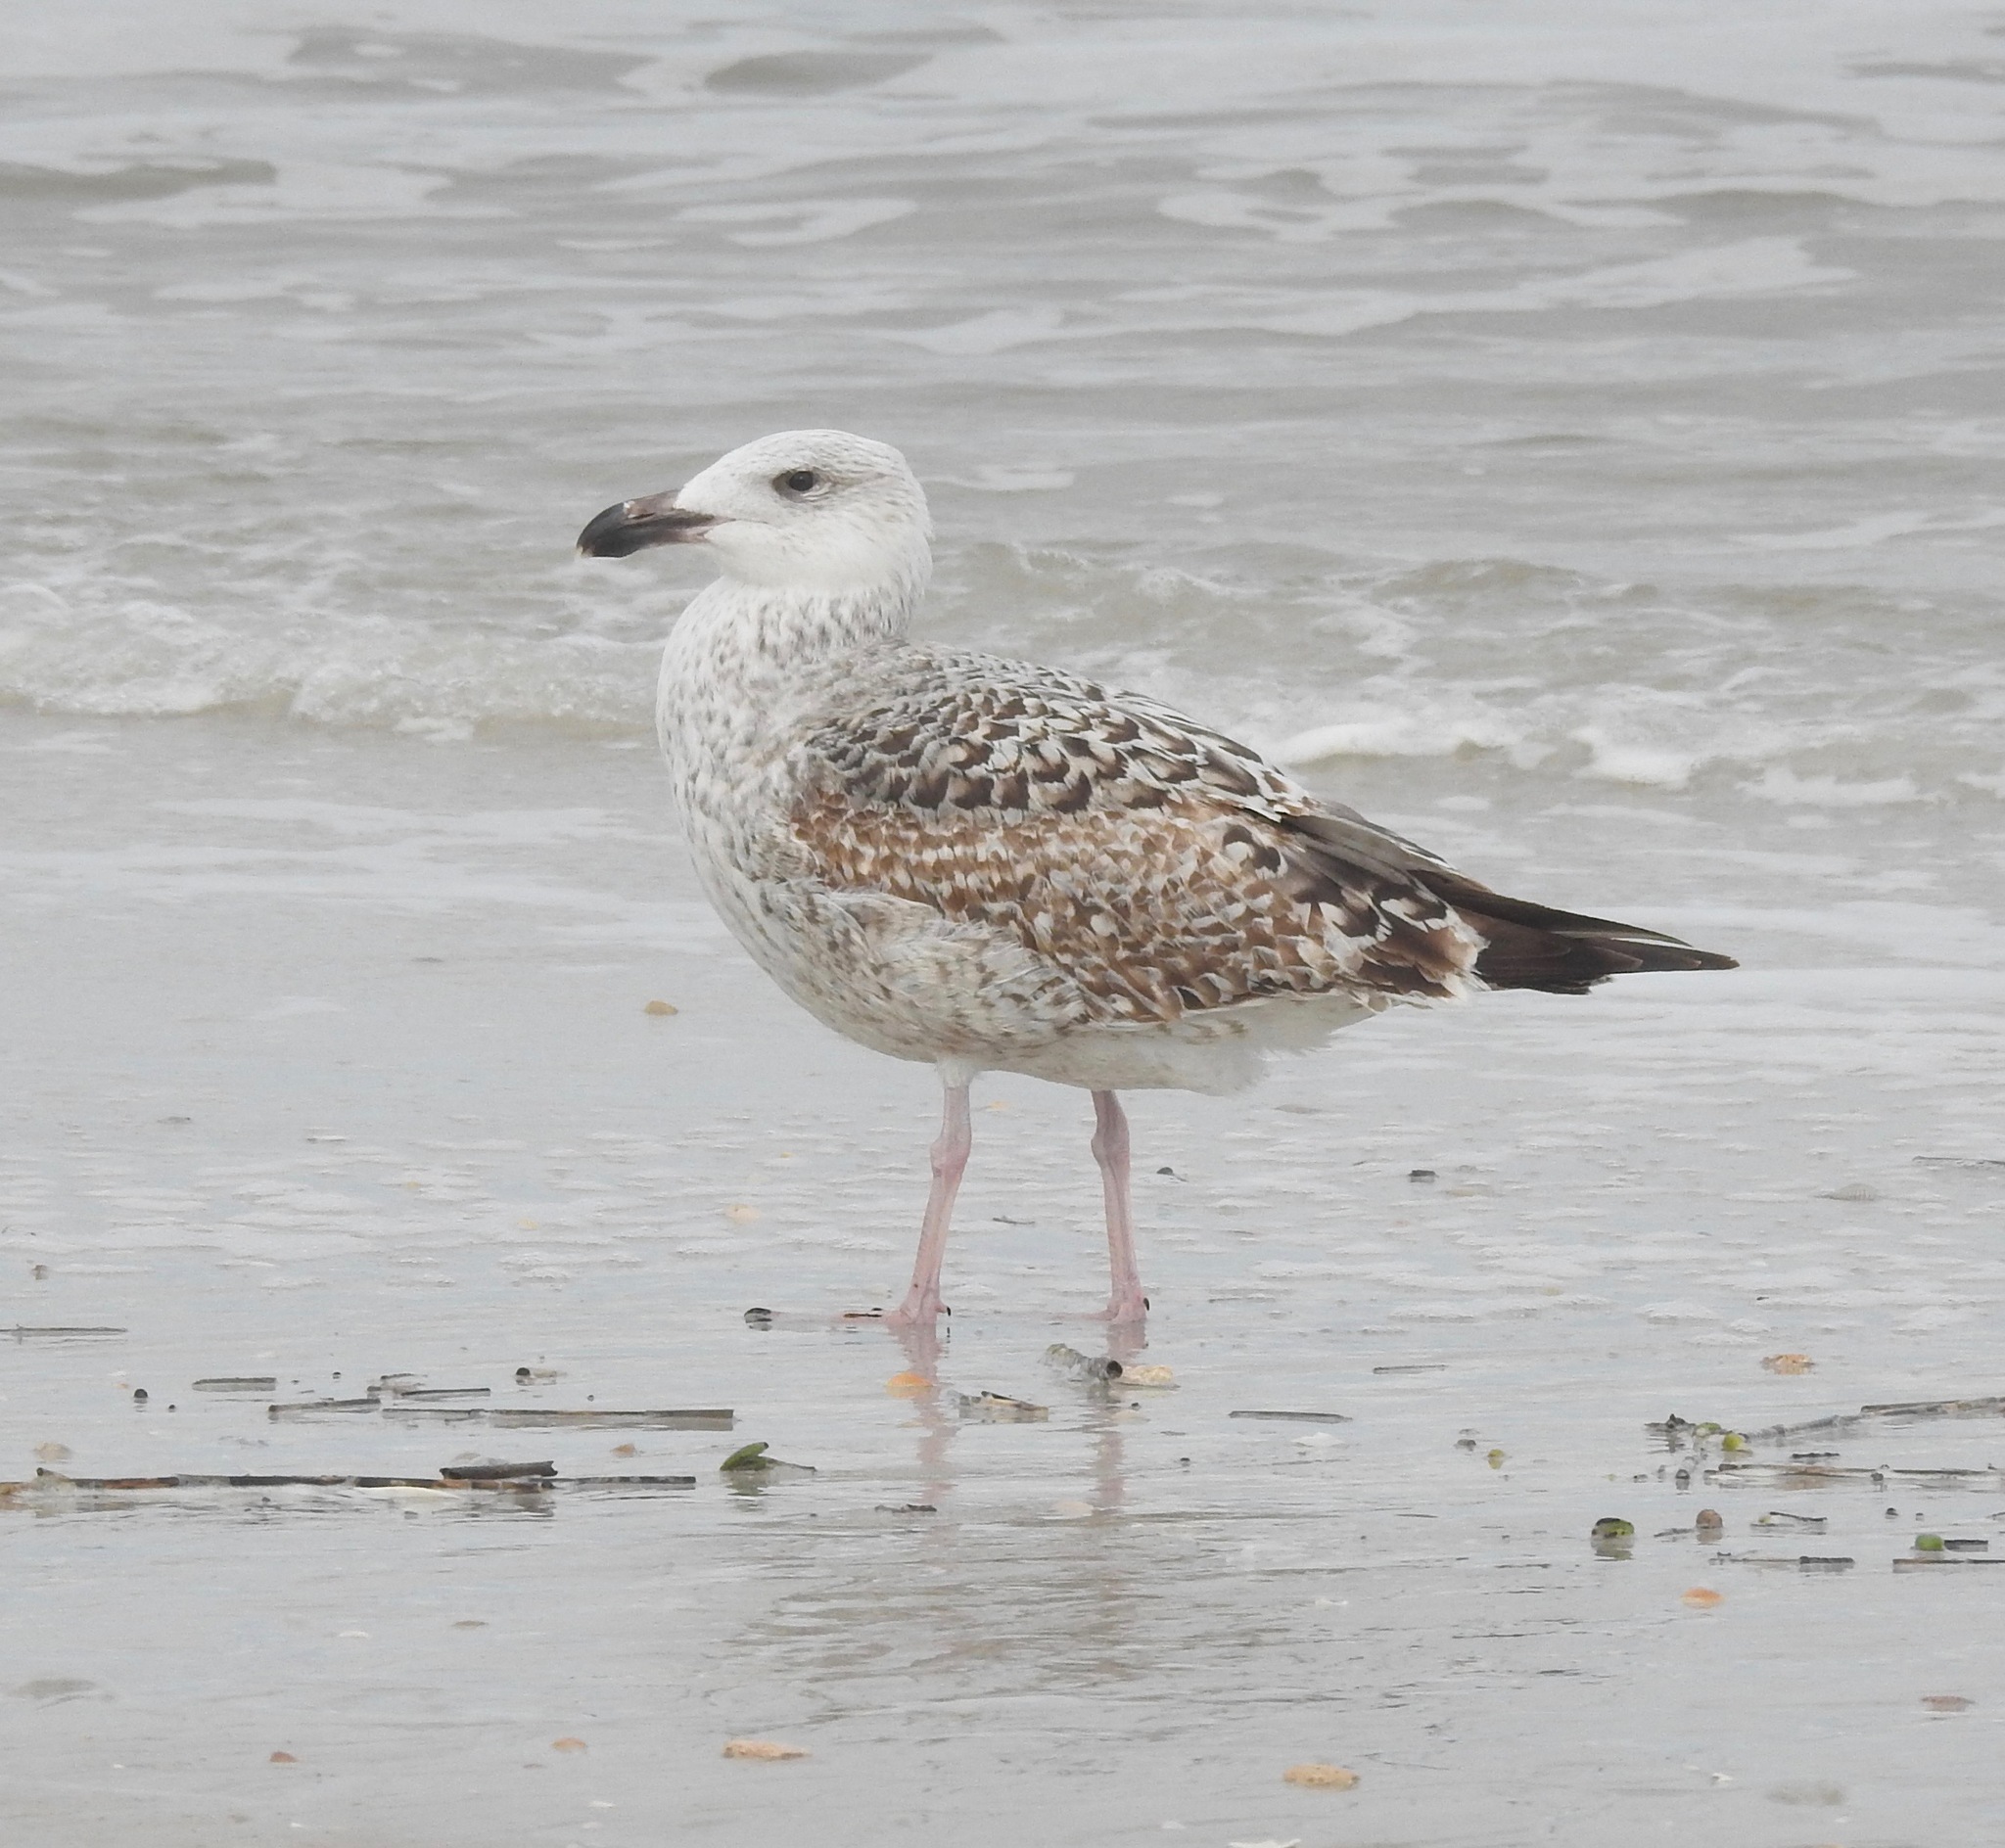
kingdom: Animalia
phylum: Chordata
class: Aves
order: Charadriiformes
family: Laridae
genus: Larus
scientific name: Larus marinus
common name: Great black-backed gull
